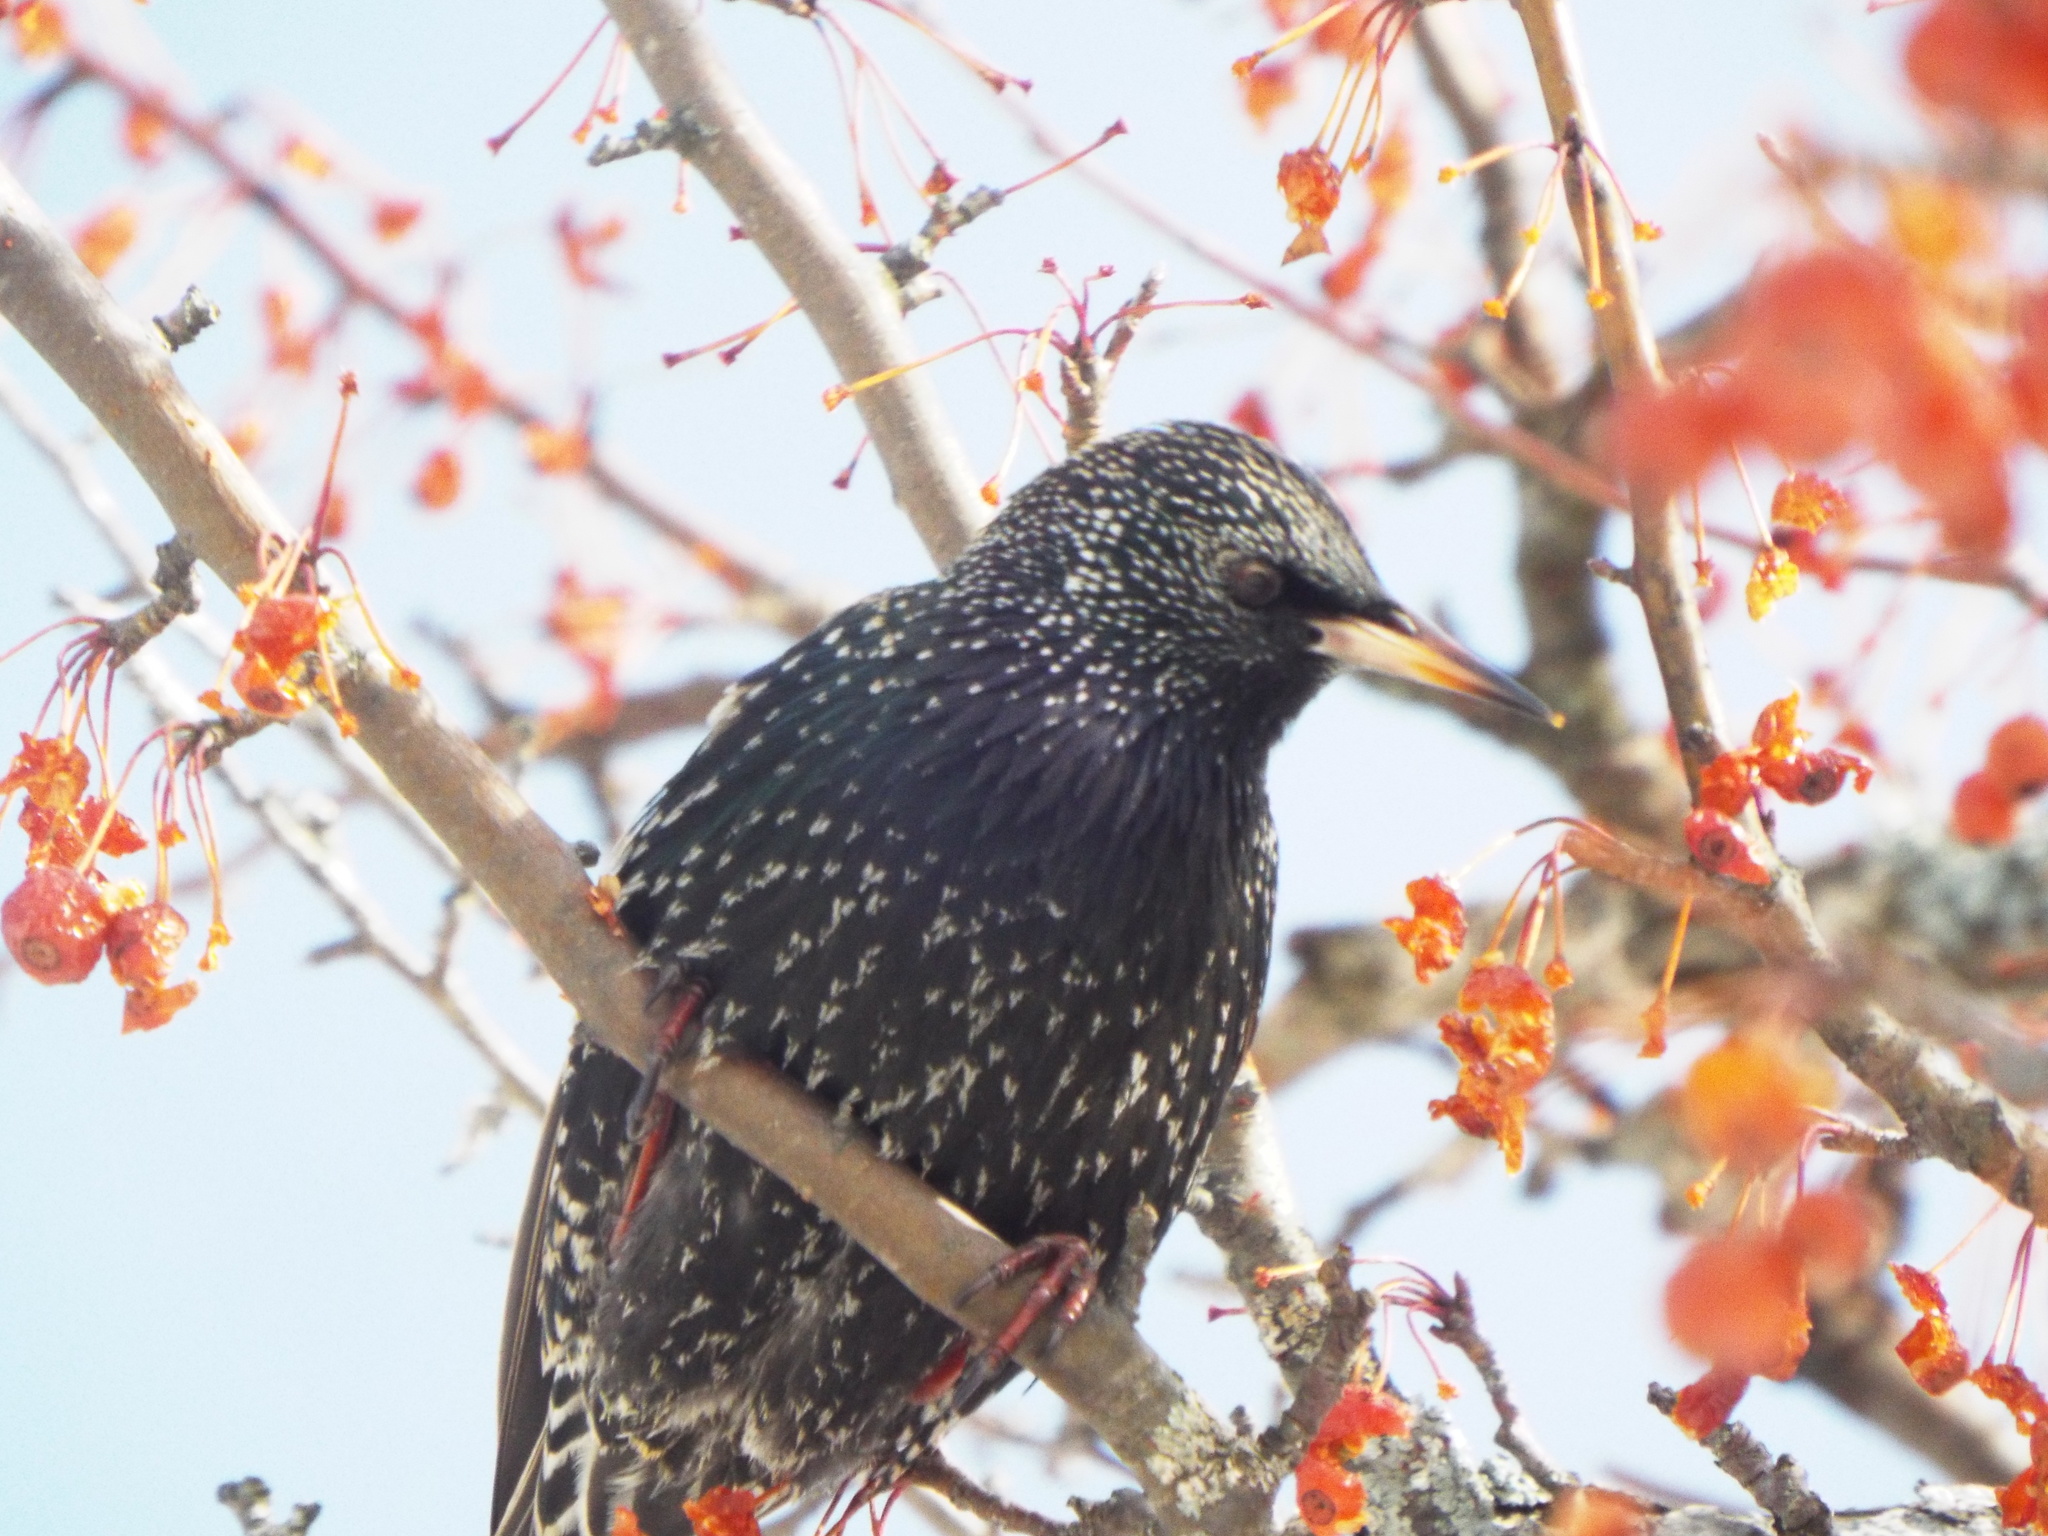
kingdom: Animalia
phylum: Chordata
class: Aves
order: Passeriformes
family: Sturnidae
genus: Sturnus
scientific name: Sturnus vulgaris
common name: Common starling
